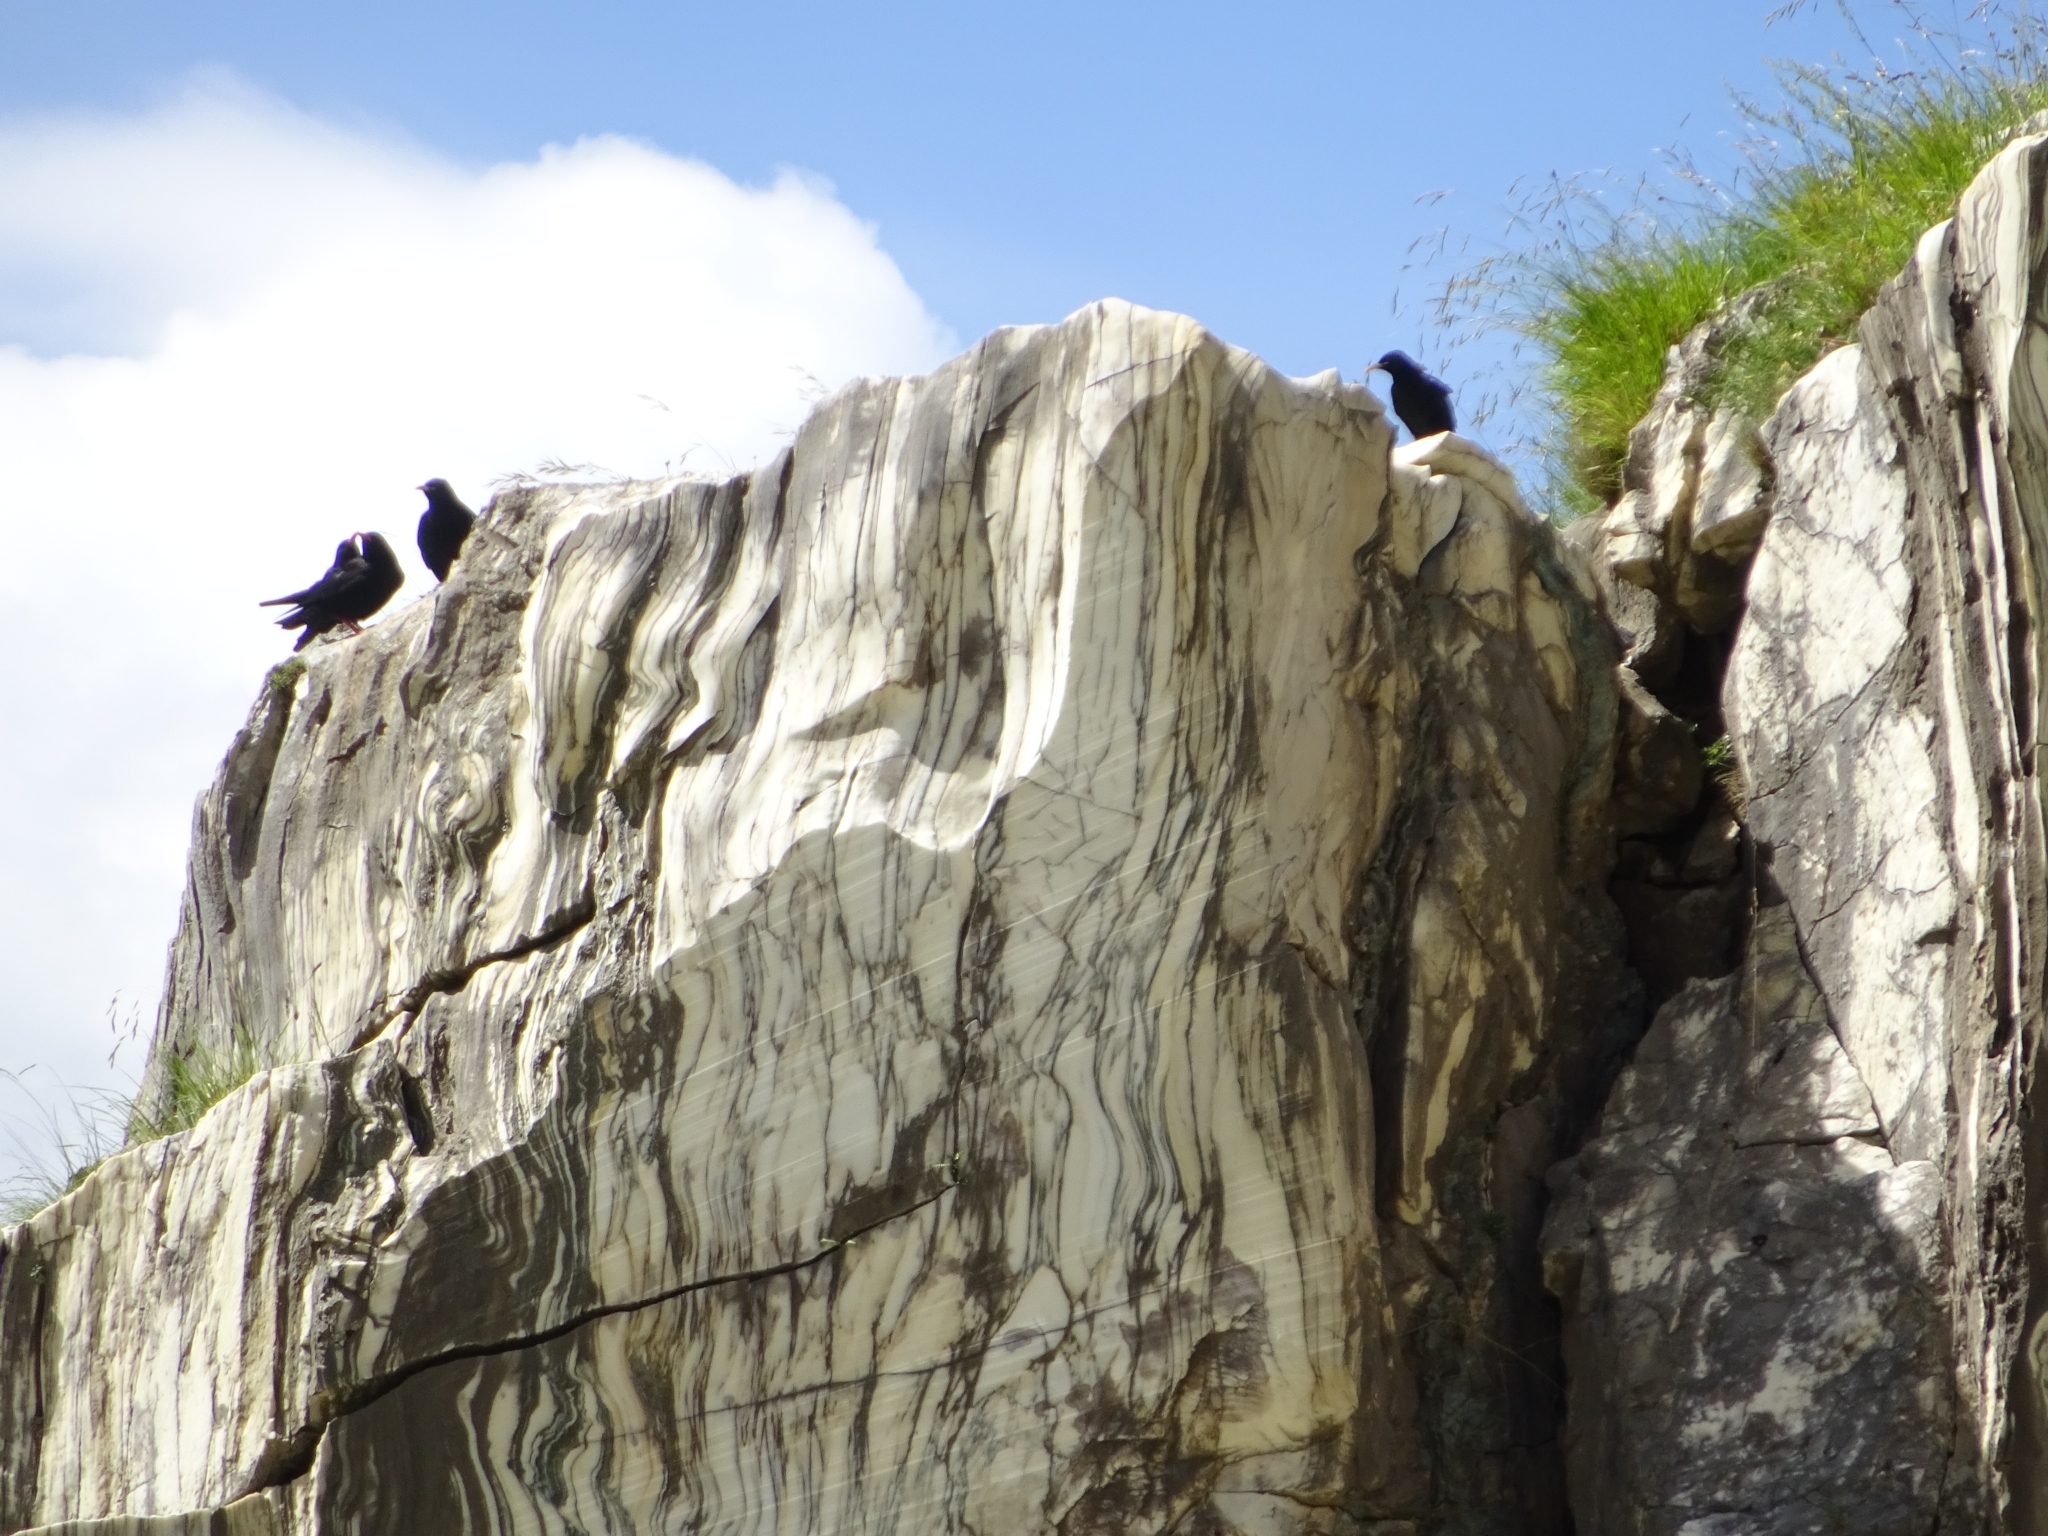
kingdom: Animalia
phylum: Chordata
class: Aves
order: Passeriformes
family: Corvidae
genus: Pyrrhocorax
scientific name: Pyrrhocorax pyrrhocorax
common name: Red-billed chough
